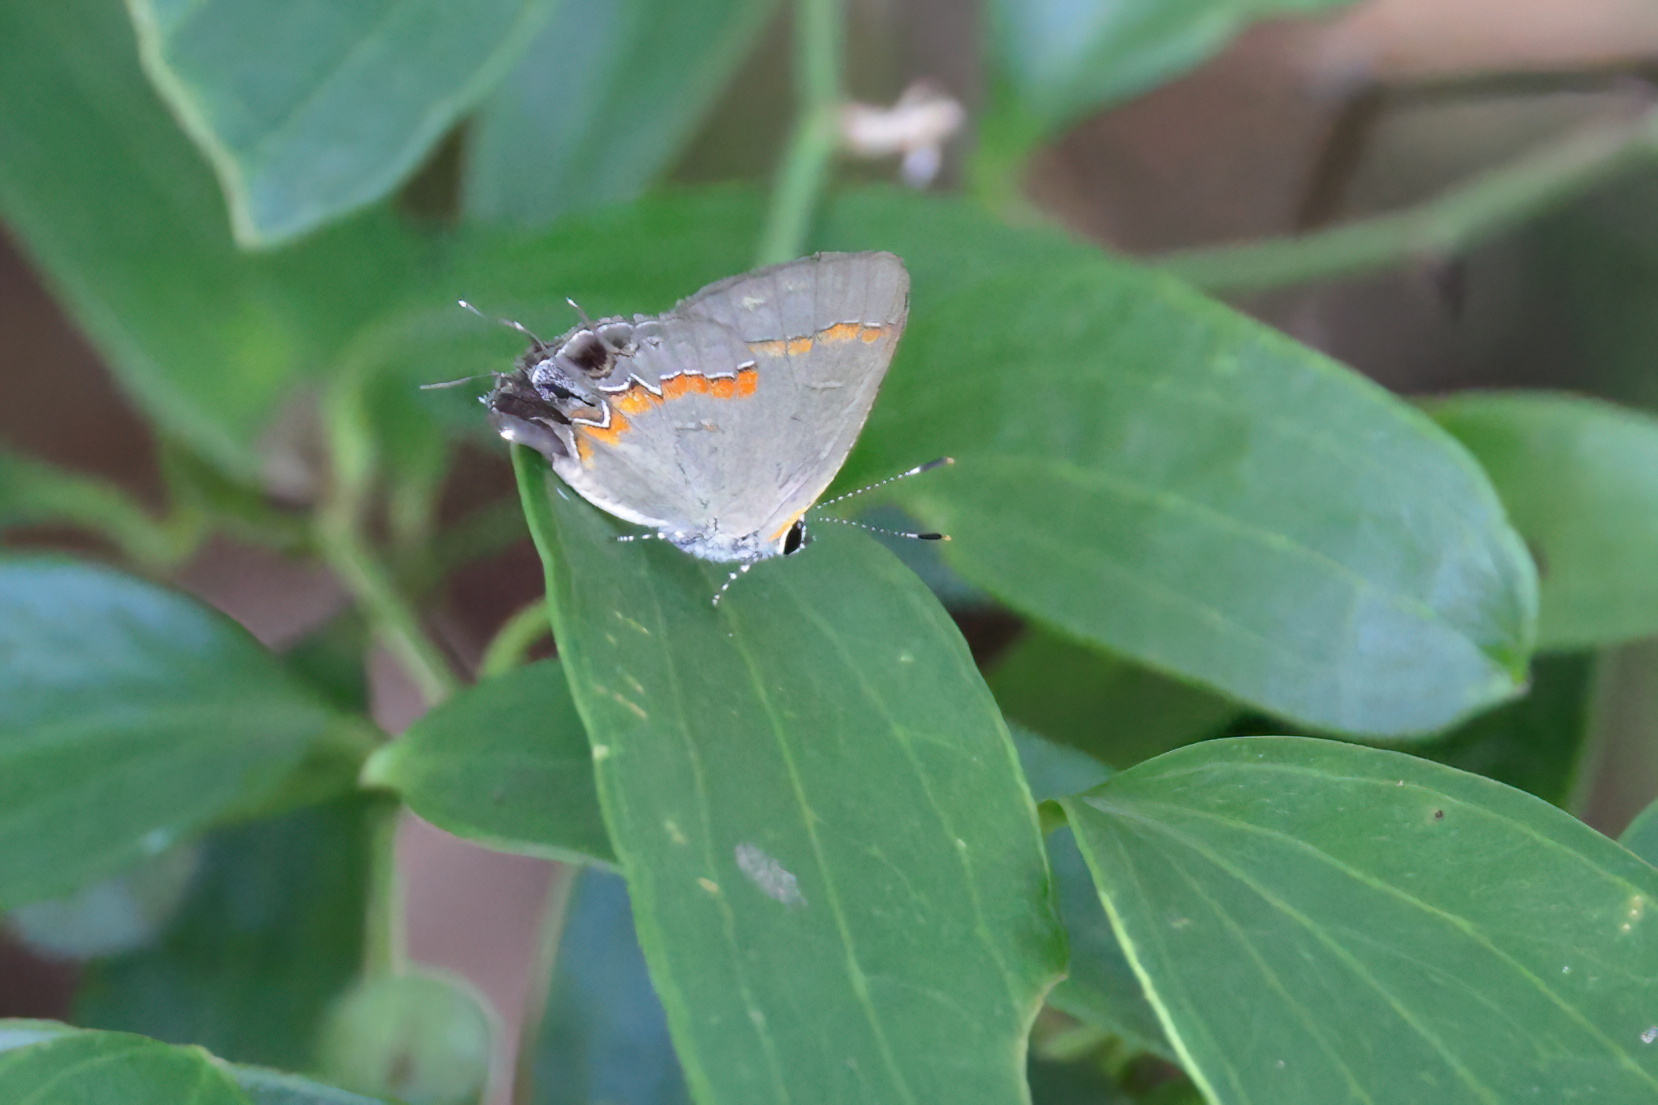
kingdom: Animalia
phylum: Arthropoda
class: Insecta
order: Lepidoptera
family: Lycaenidae
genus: Calycopis
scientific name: Calycopis cecrops
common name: Red-banded hairstreak
